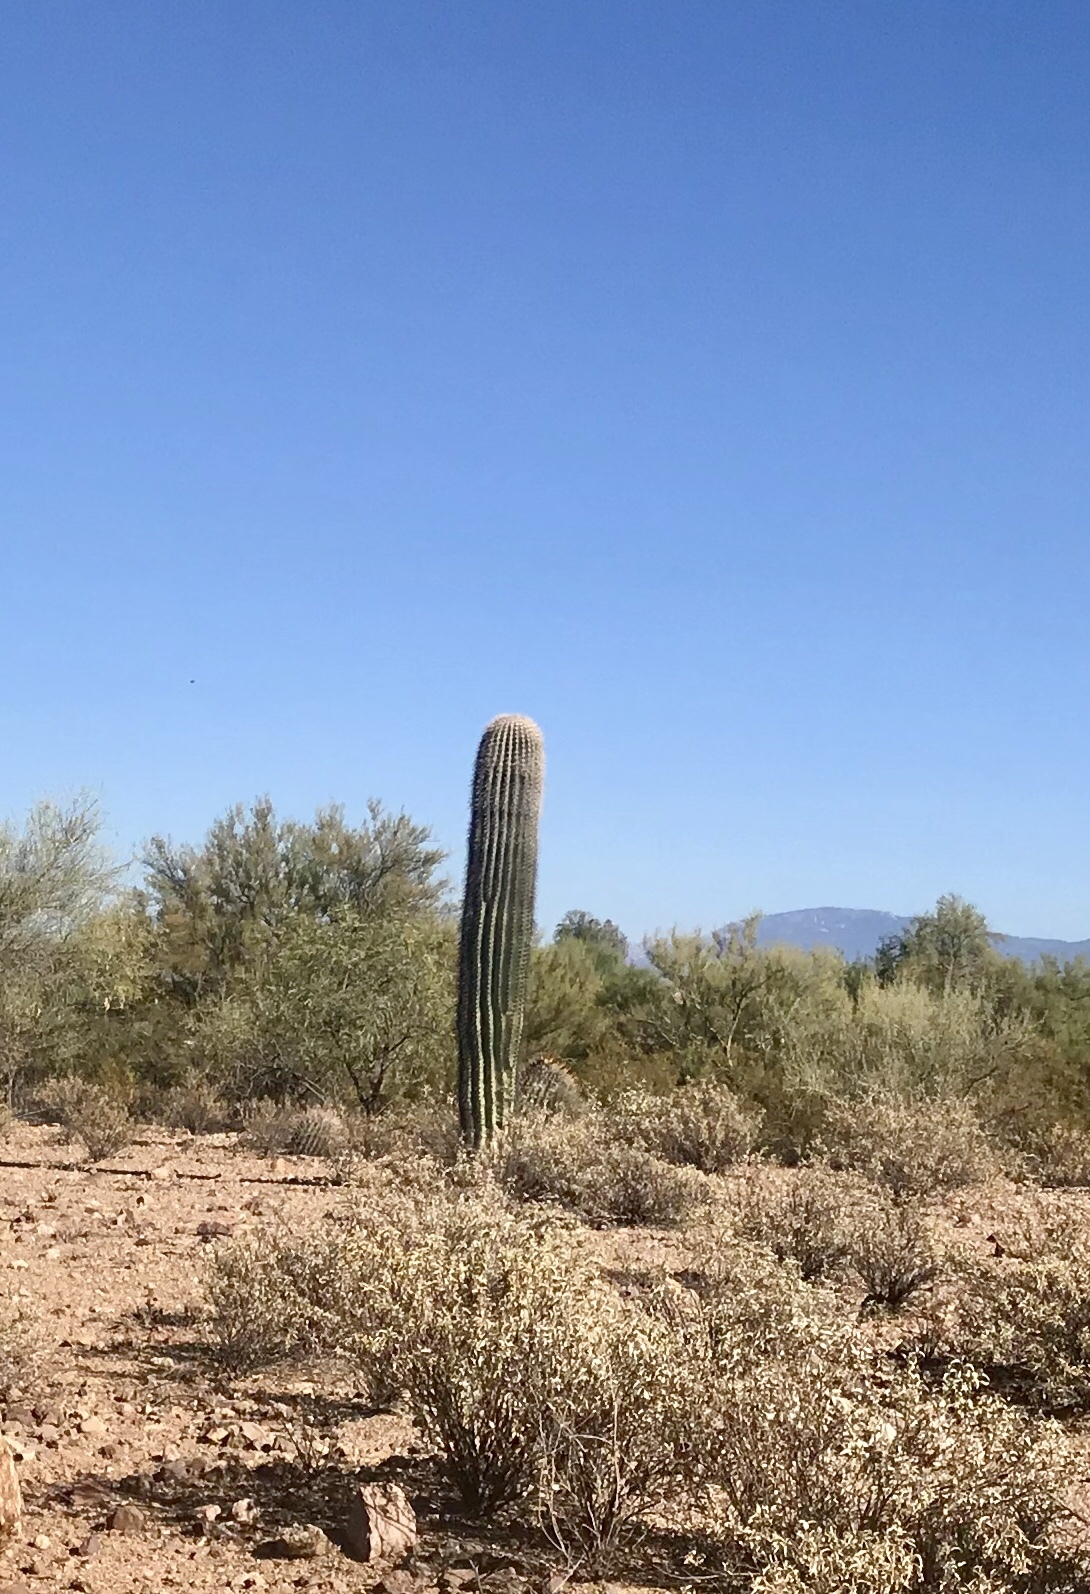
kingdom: Plantae
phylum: Tracheophyta
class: Magnoliopsida
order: Caryophyllales
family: Cactaceae
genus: Carnegiea
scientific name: Carnegiea gigantea
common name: Saguaro
